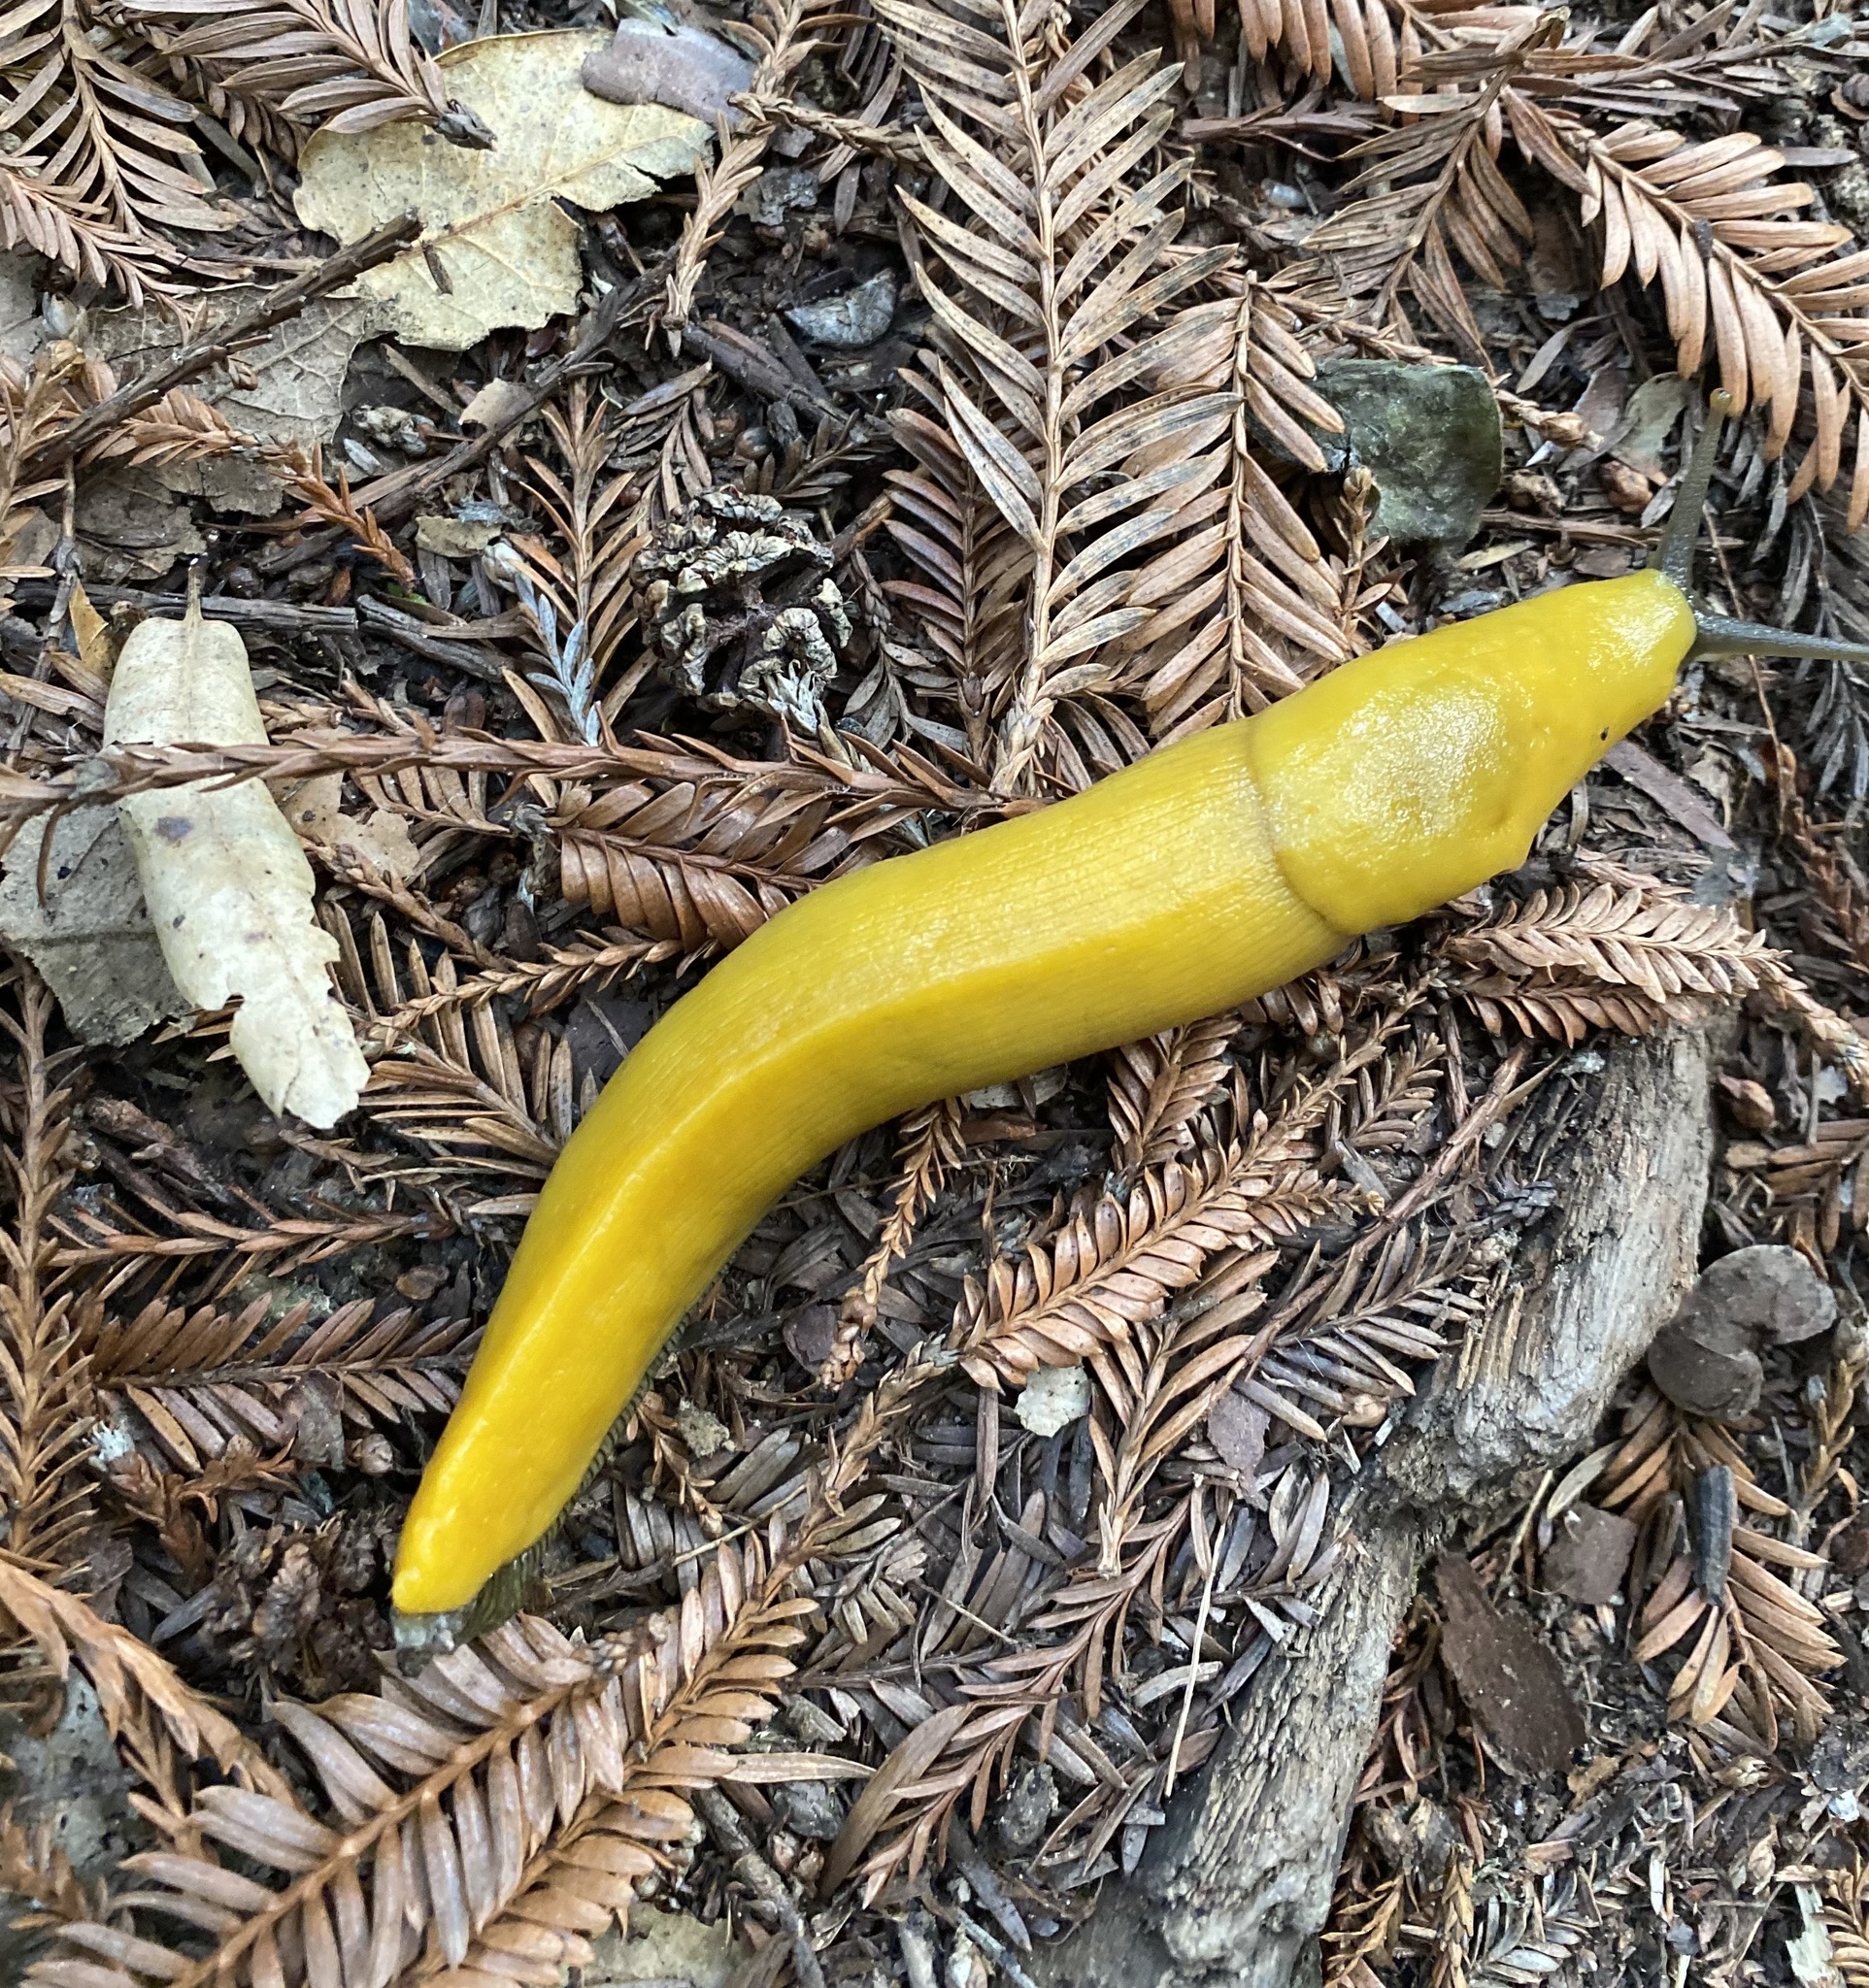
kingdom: Animalia
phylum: Mollusca
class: Gastropoda
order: Stylommatophora
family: Ariolimacidae
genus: Ariolimax
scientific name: Ariolimax dolichophallus
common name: Slender banana slug
